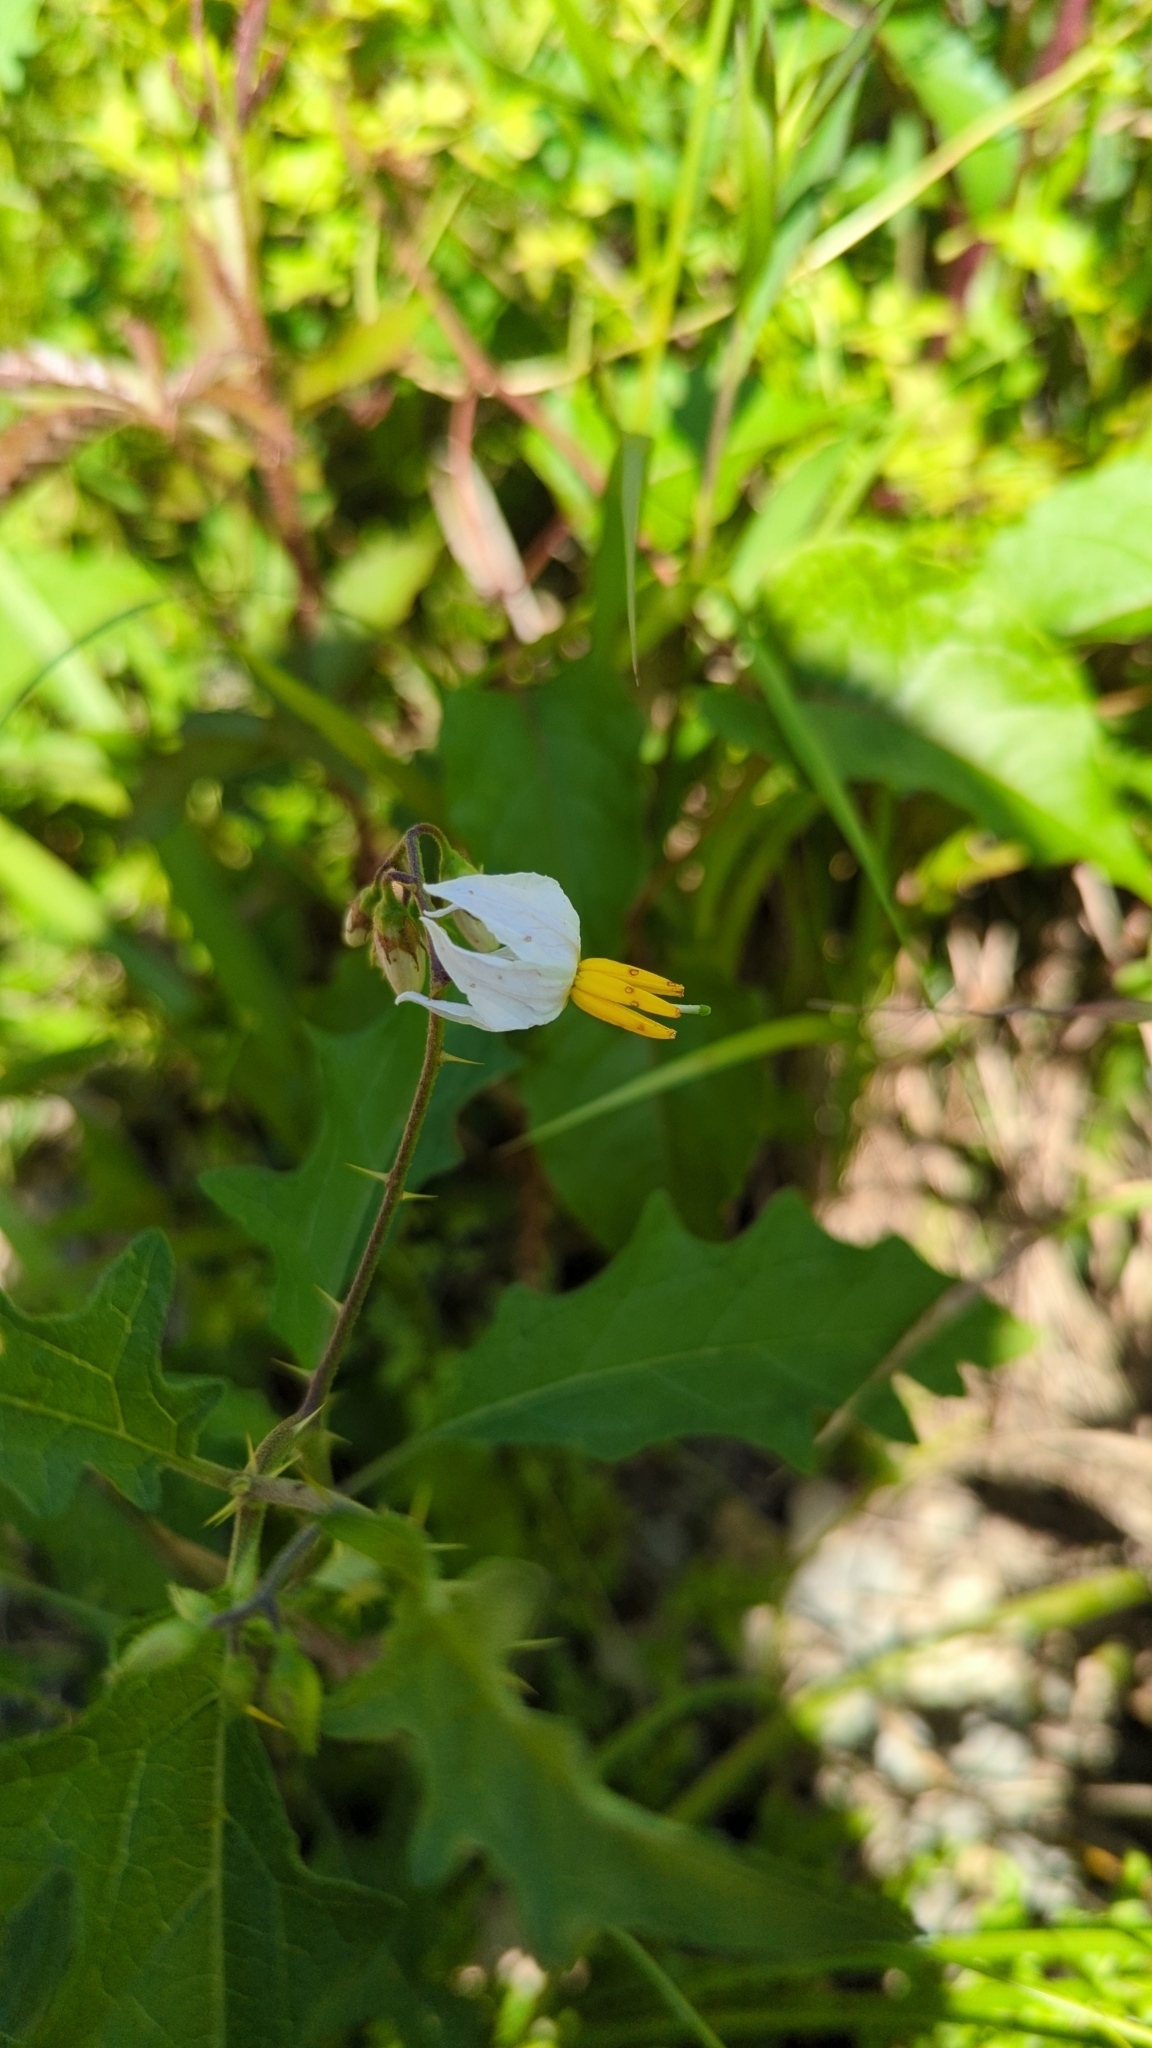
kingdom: Plantae
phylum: Tracheophyta
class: Magnoliopsida
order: Solanales
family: Solanaceae
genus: Solanum
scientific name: Solanum carolinense
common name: Horse-nettle
